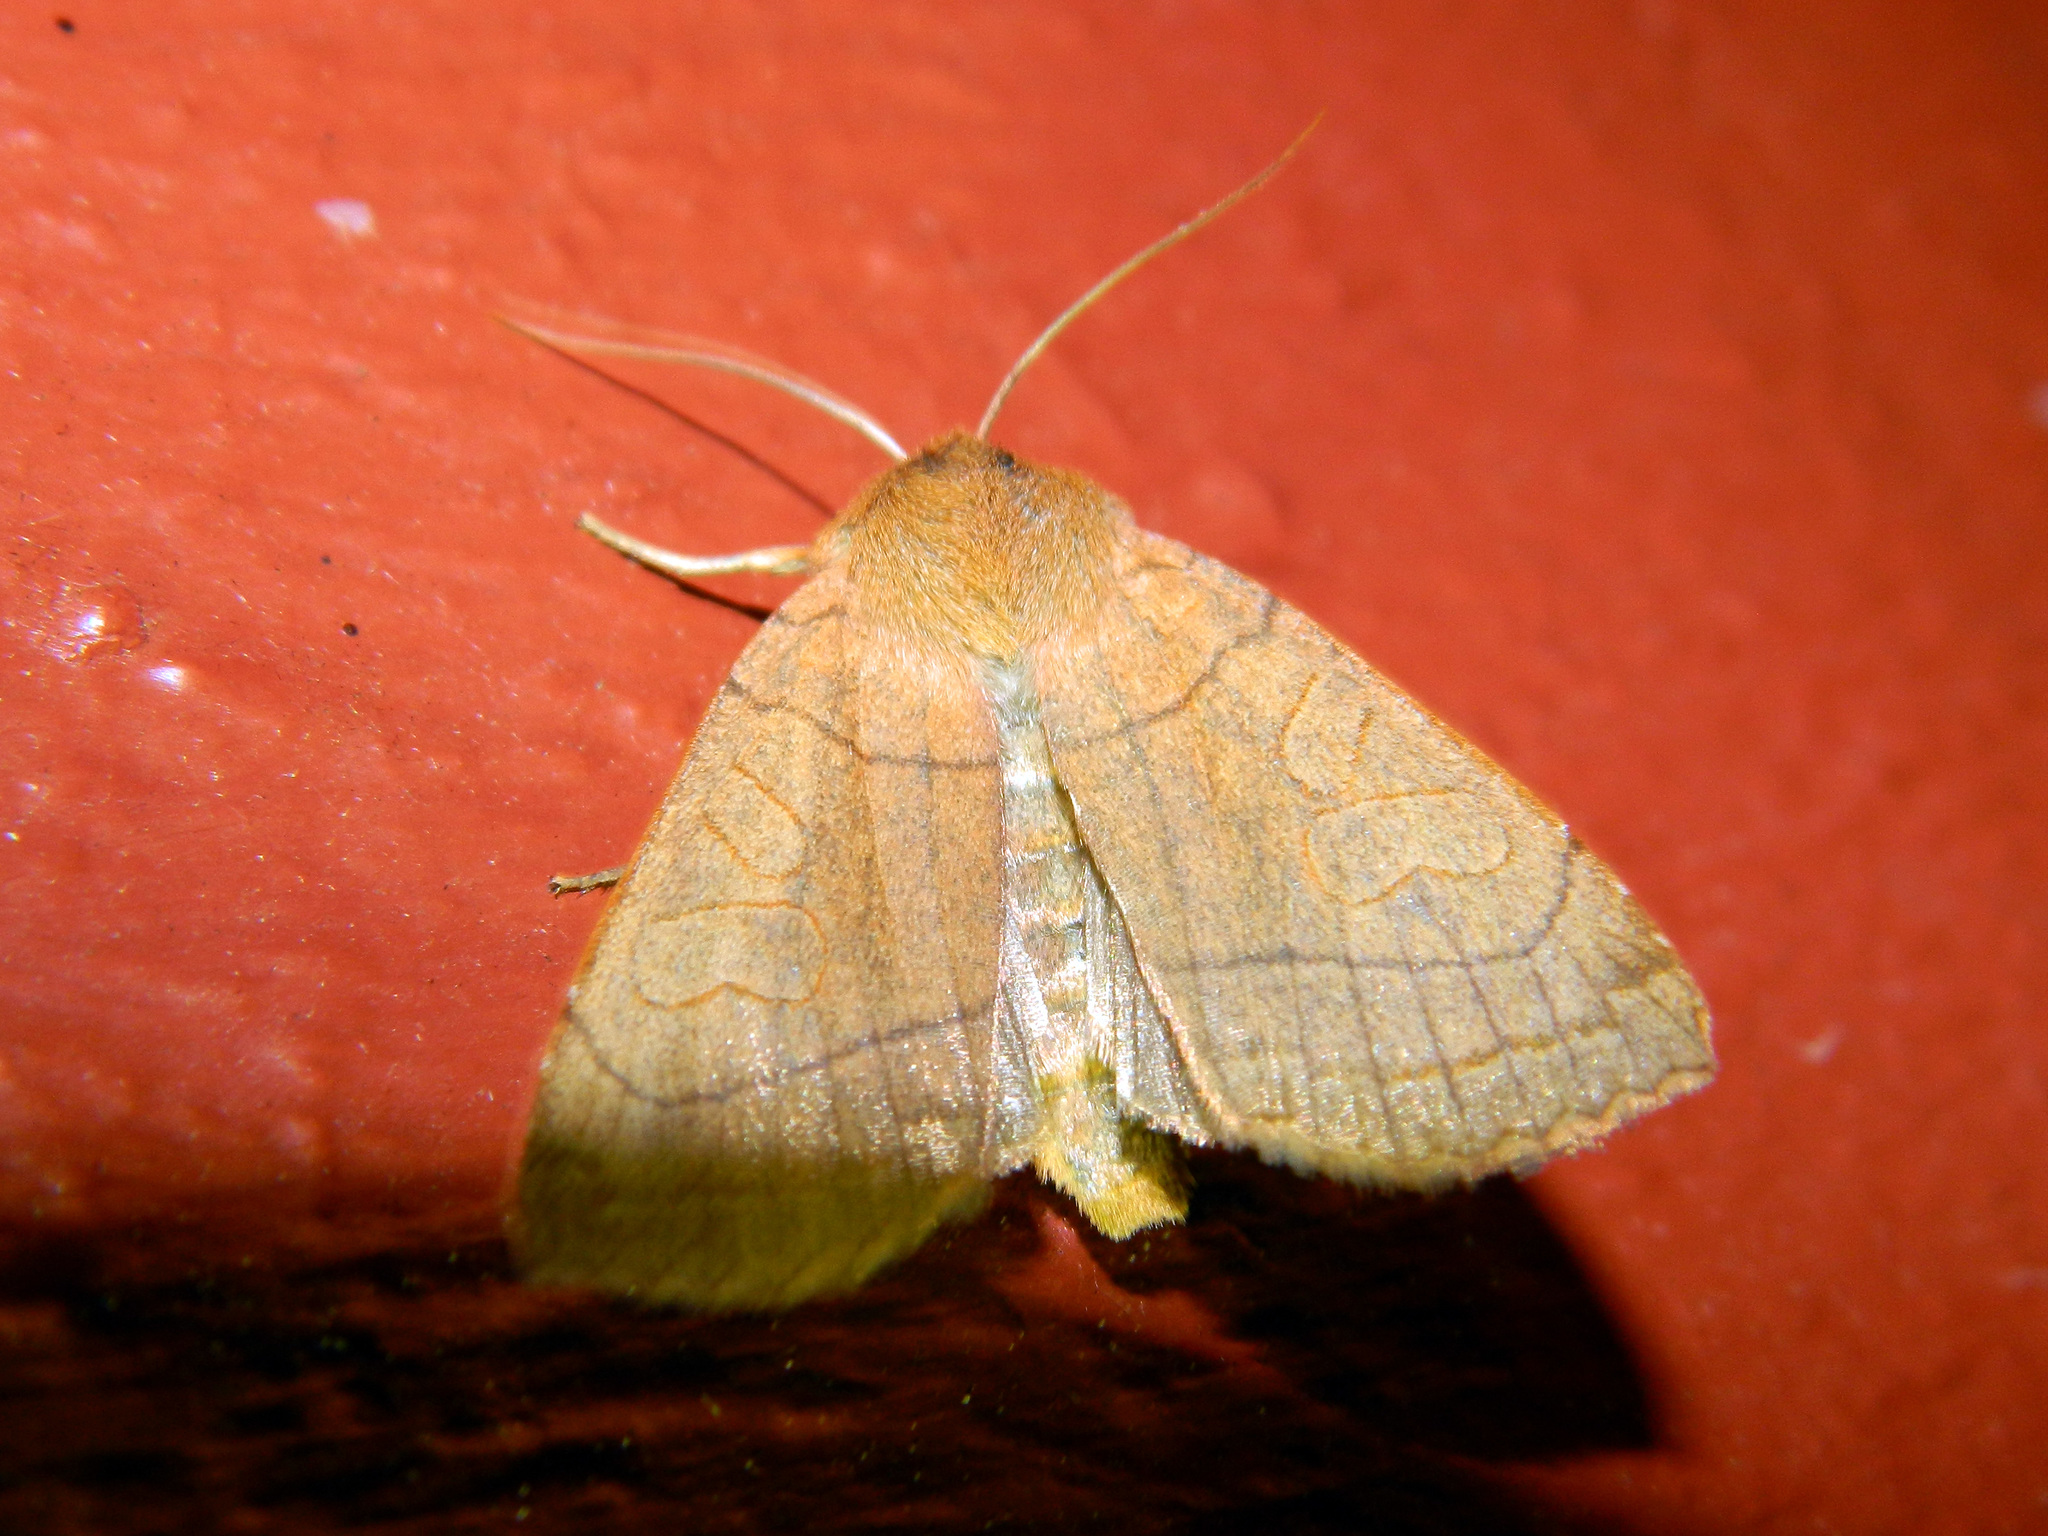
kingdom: Animalia
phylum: Arthropoda
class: Insecta
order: Lepidoptera
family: Noctuidae
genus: Metaxaglaea
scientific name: Metaxaglaea inulta
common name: Unsated sallow
